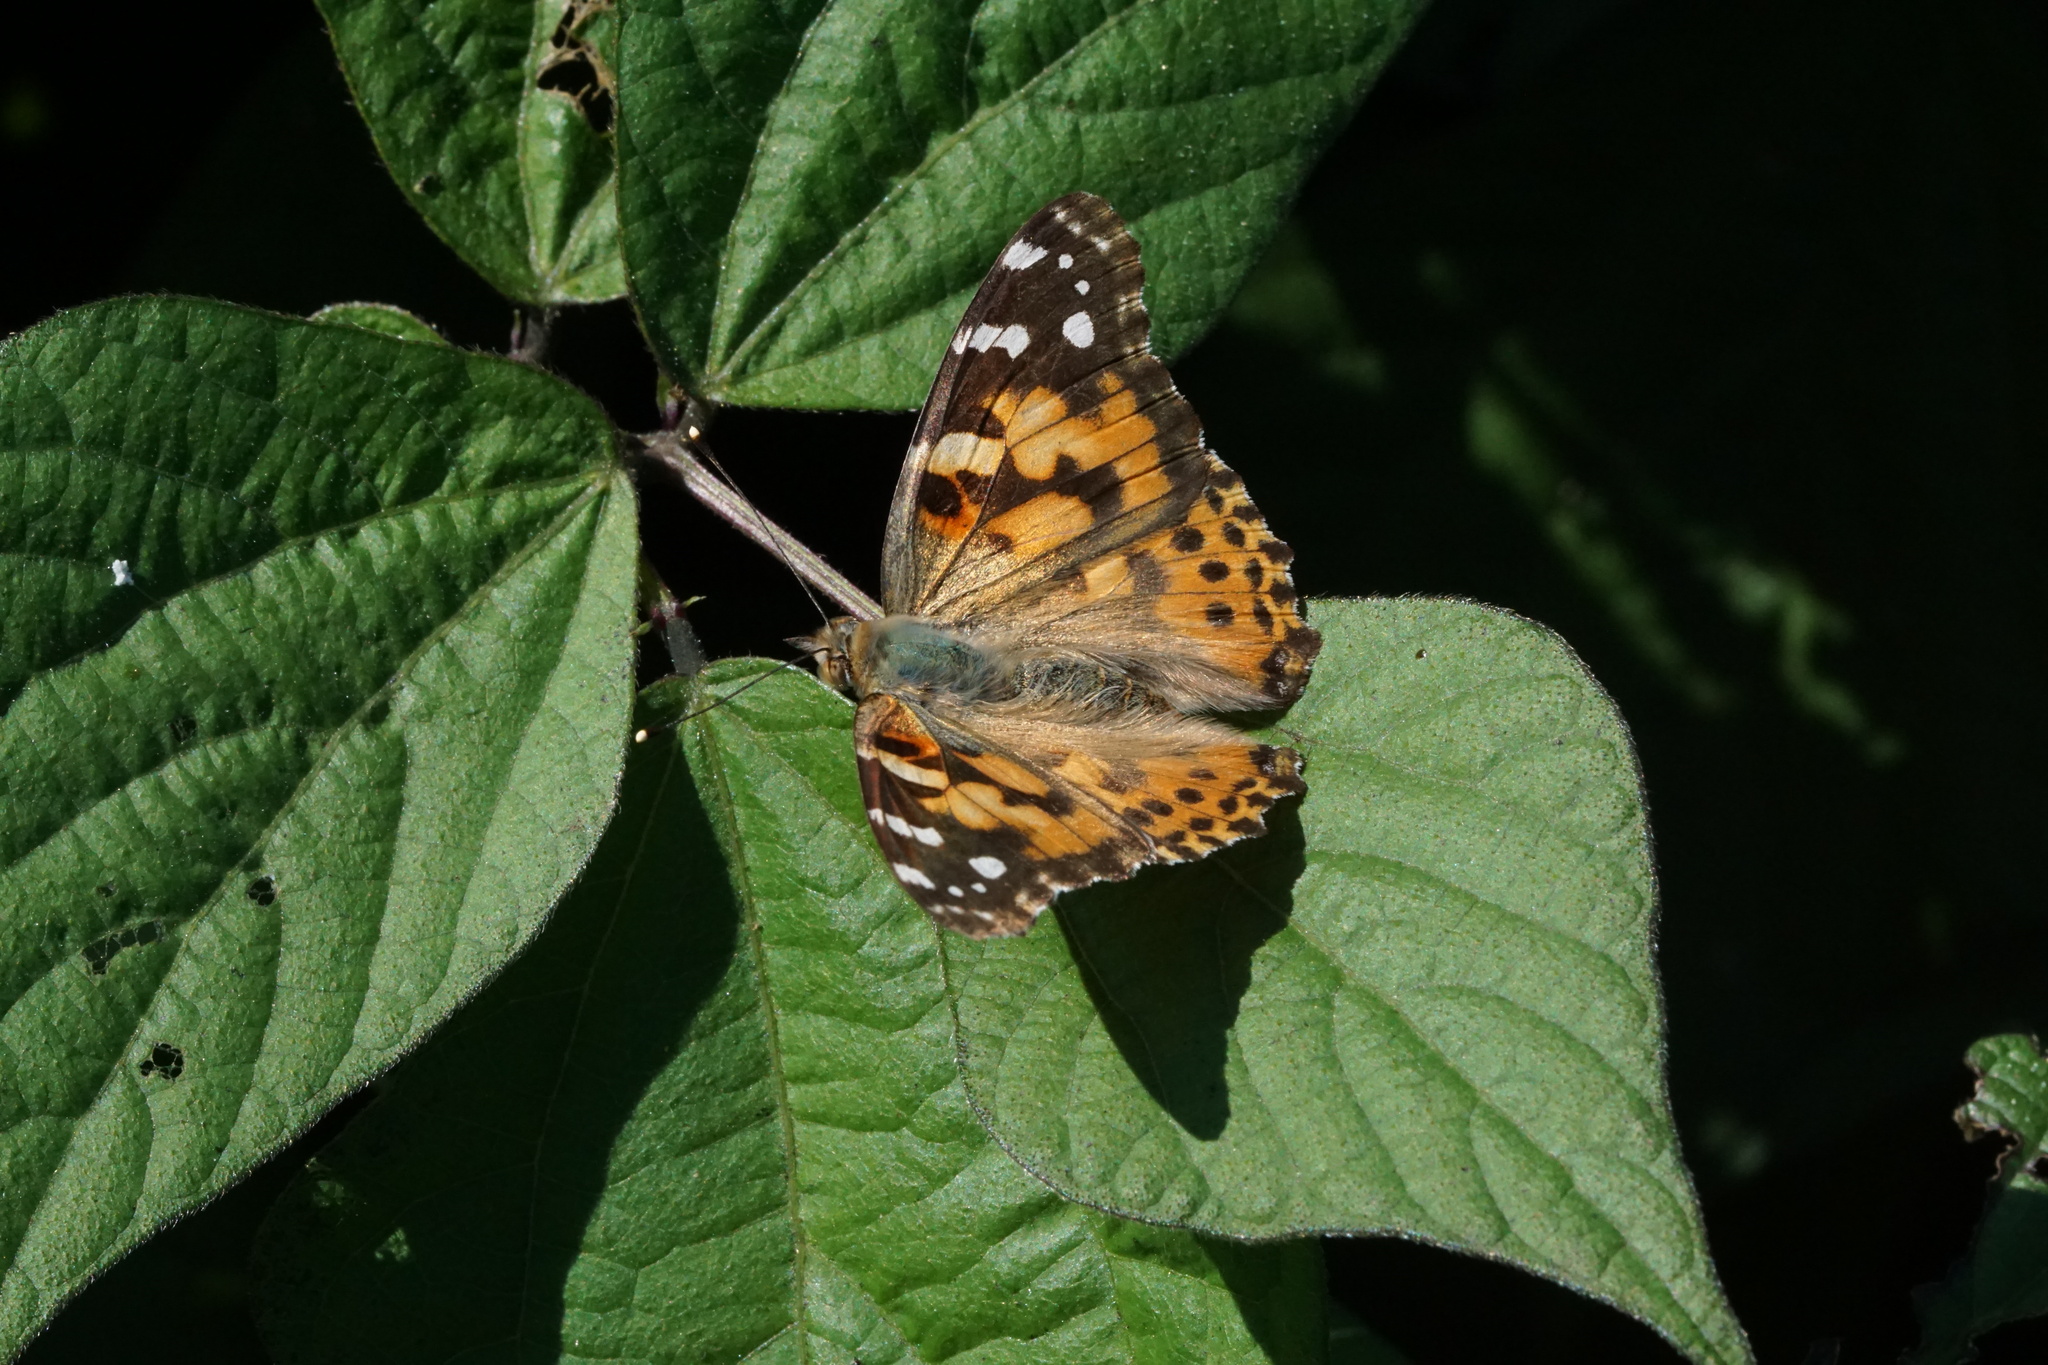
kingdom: Animalia
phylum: Arthropoda
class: Insecta
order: Lepidoptera
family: Nymphalidae
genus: Vanessa
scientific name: Vanessa cardui
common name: Painted lady
